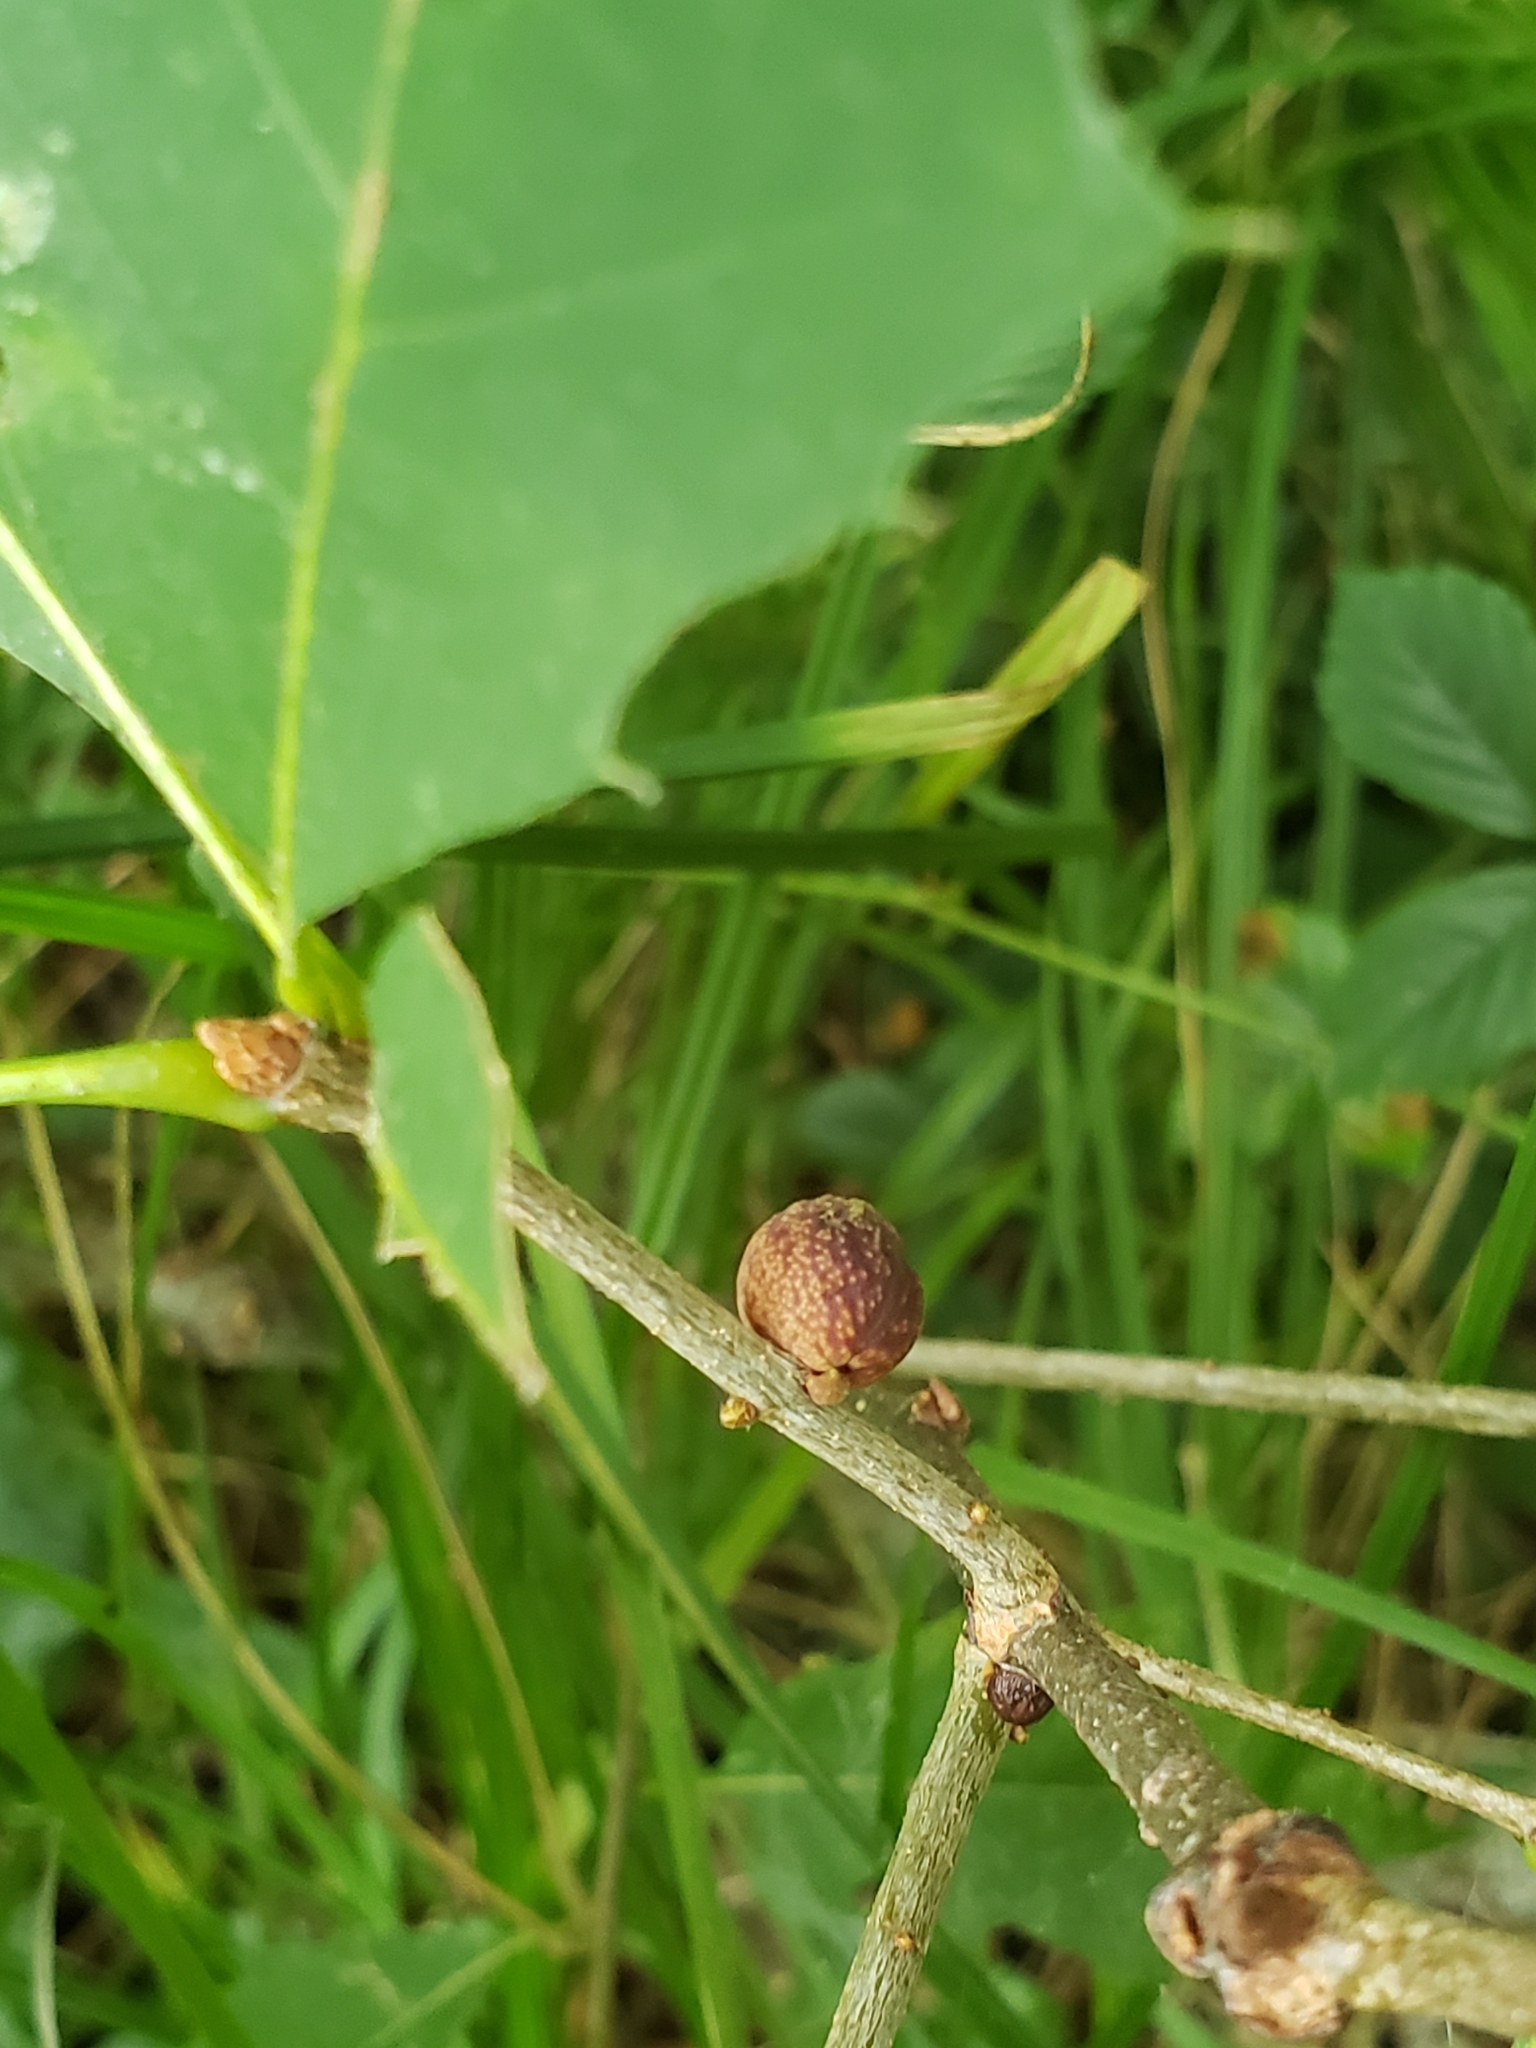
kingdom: Animalia
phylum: Arthropoda
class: Insecta
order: Hymenoptera
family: Cynipidae
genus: Kokkocynips
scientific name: Kokkocynips imbricariae
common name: Banded bullet gall wasp
